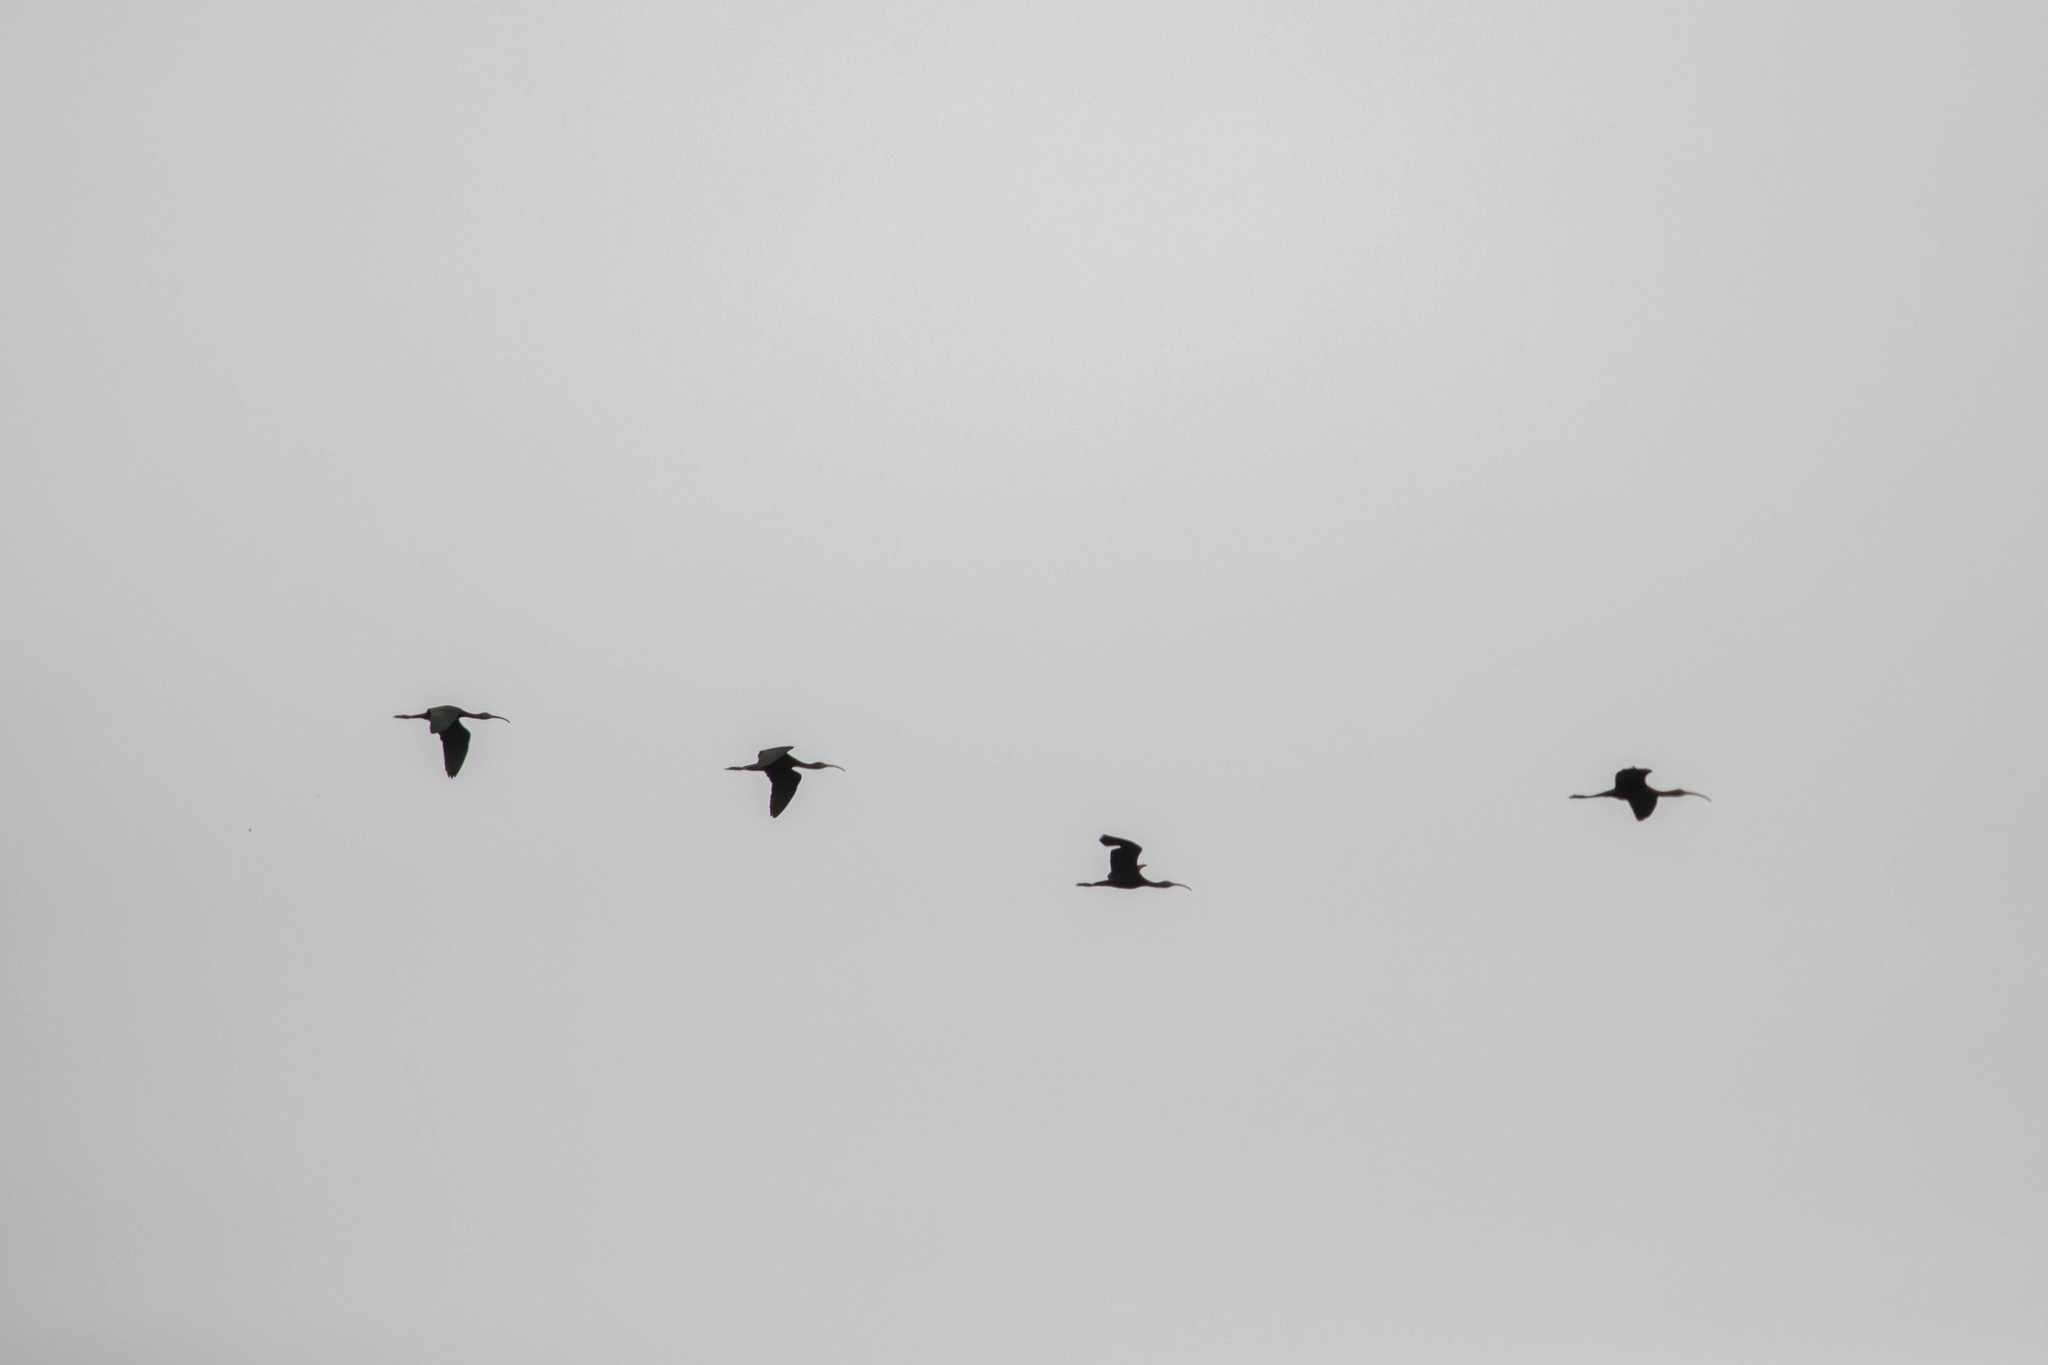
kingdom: Animalia
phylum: Chordata
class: Aves
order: Pelecaniformes
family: Threskiornithidae
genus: Plegadis
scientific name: Plegadis chihi
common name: White-faced ibis
